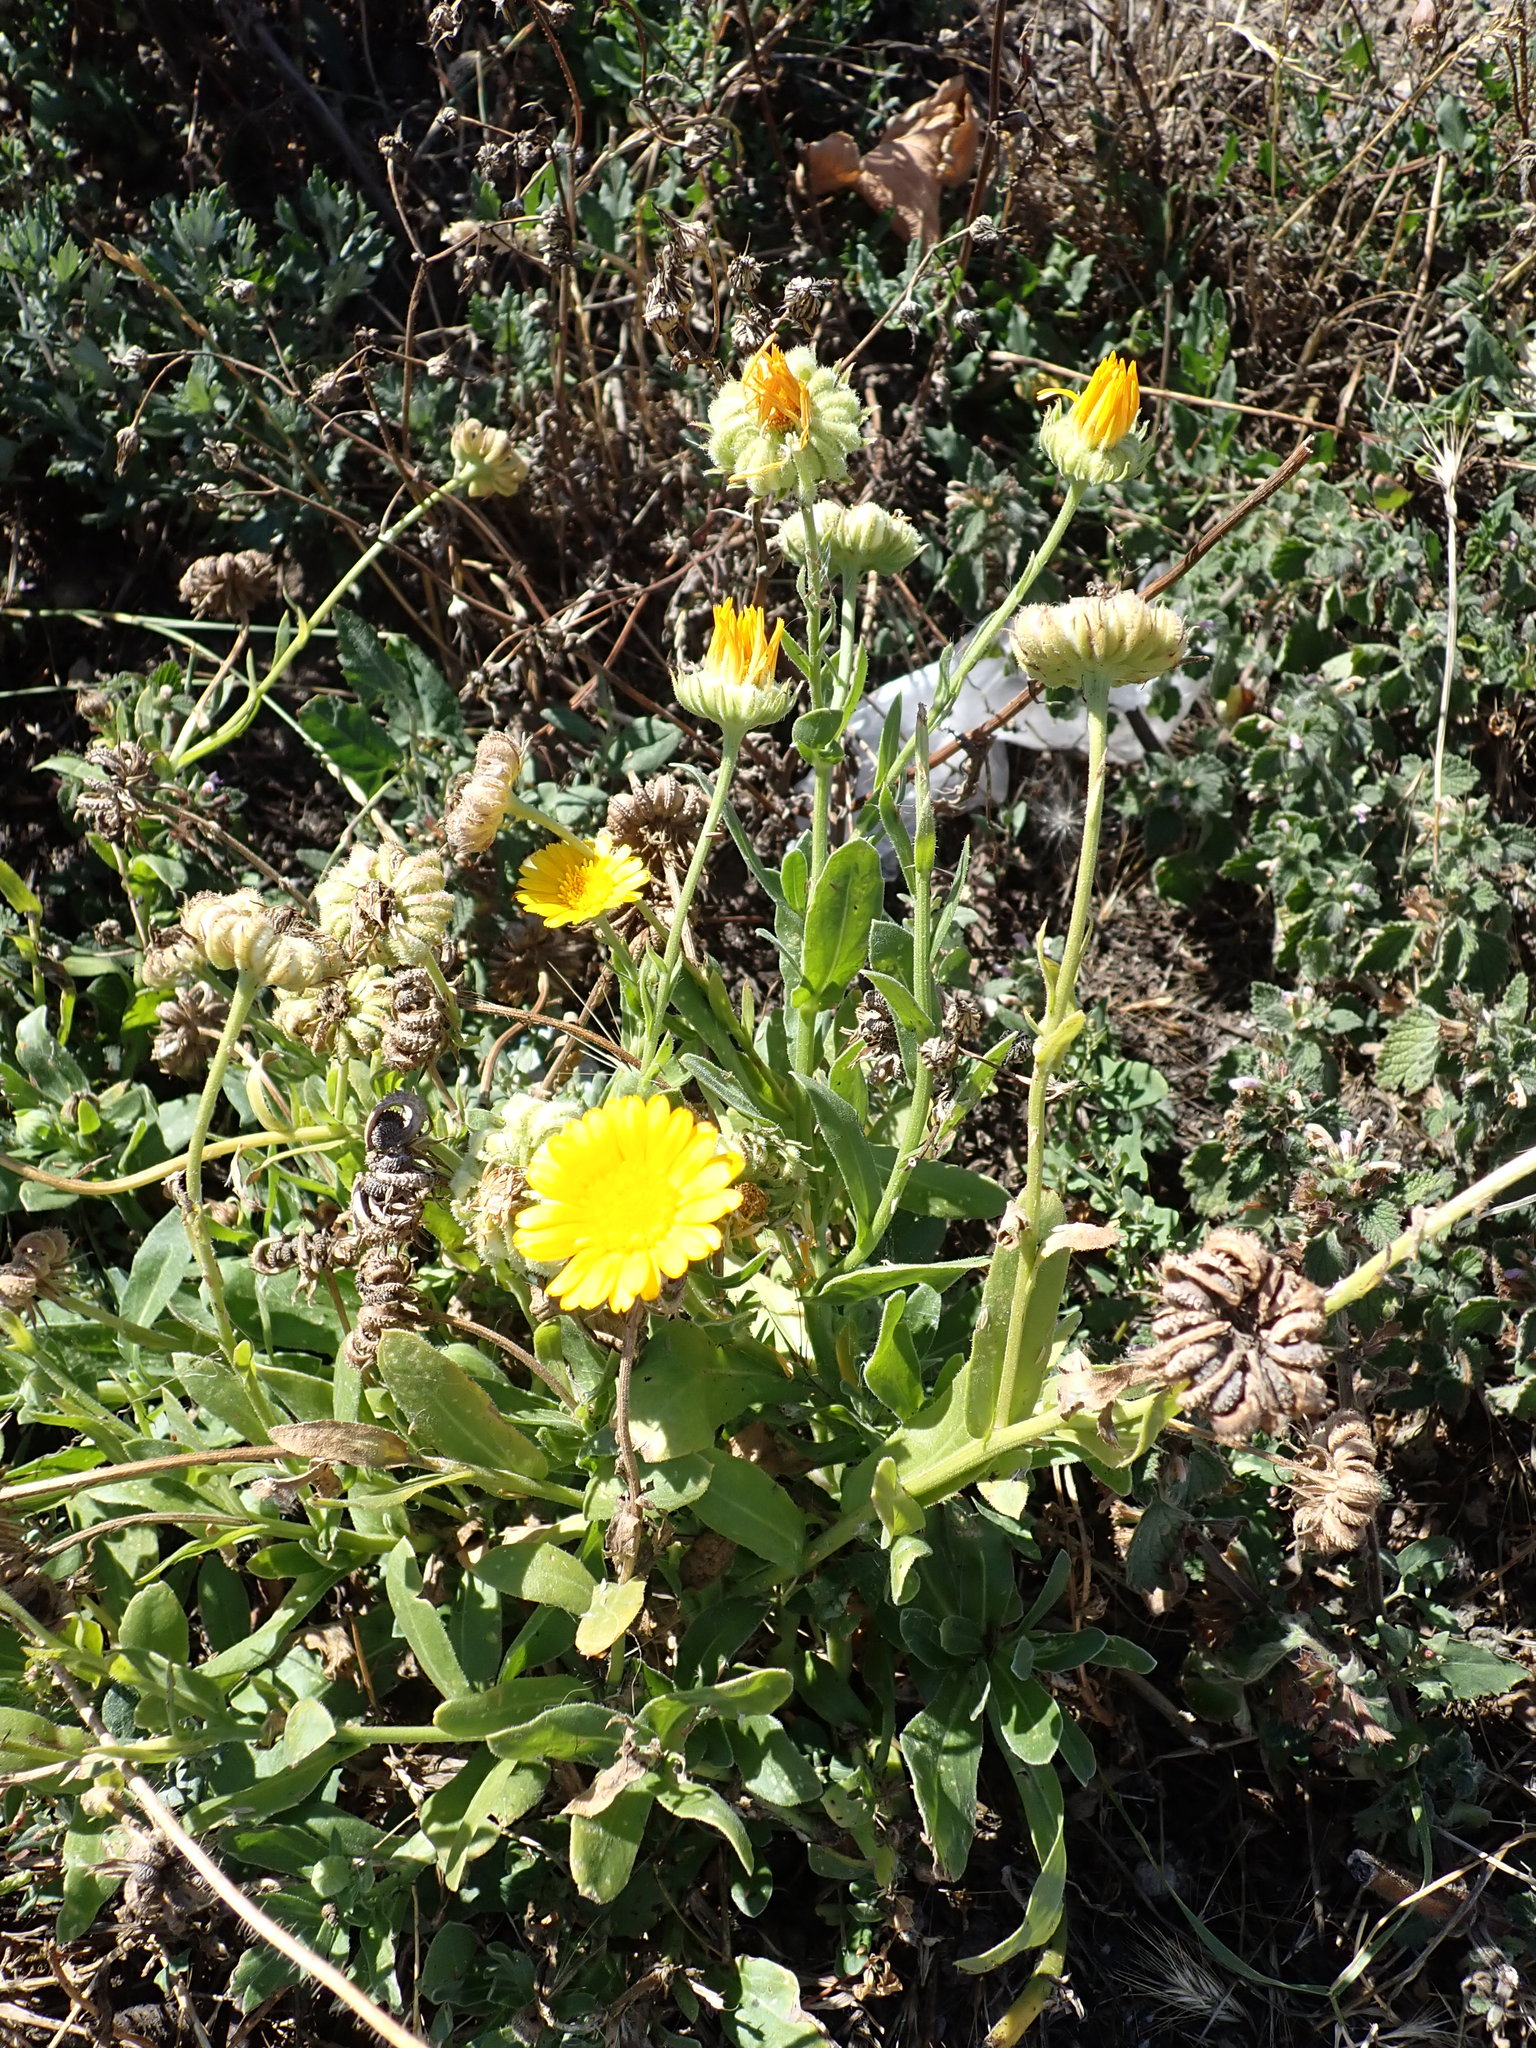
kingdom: Plantae
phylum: Tracheophyta
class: Magnoliopsida
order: Asterales
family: Asteraceae
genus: Calendula
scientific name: Calendula officinalis
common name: Pot marigold
